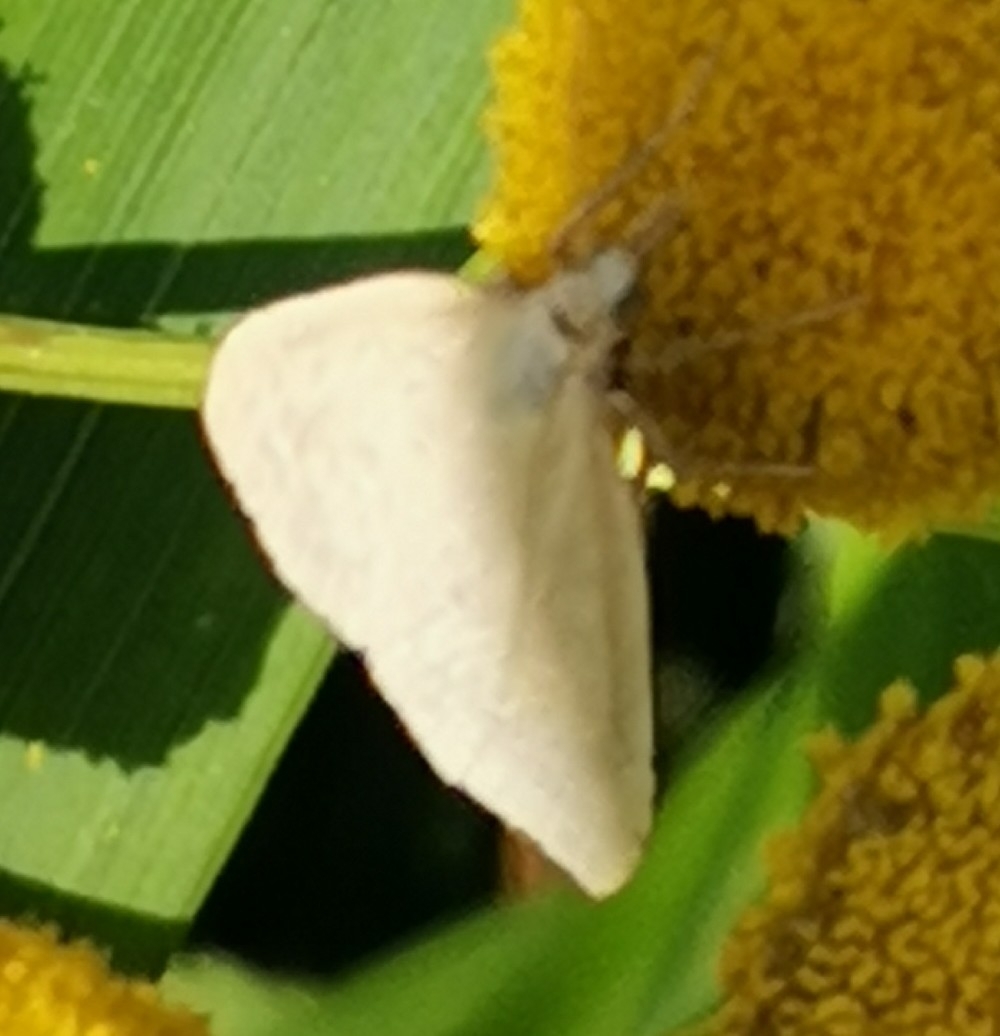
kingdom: Animalia
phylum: Arthropoda
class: Insecta
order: Lepidoptera
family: Crambidae
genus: Udea
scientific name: Udea lutealis
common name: Pale straw pearl
